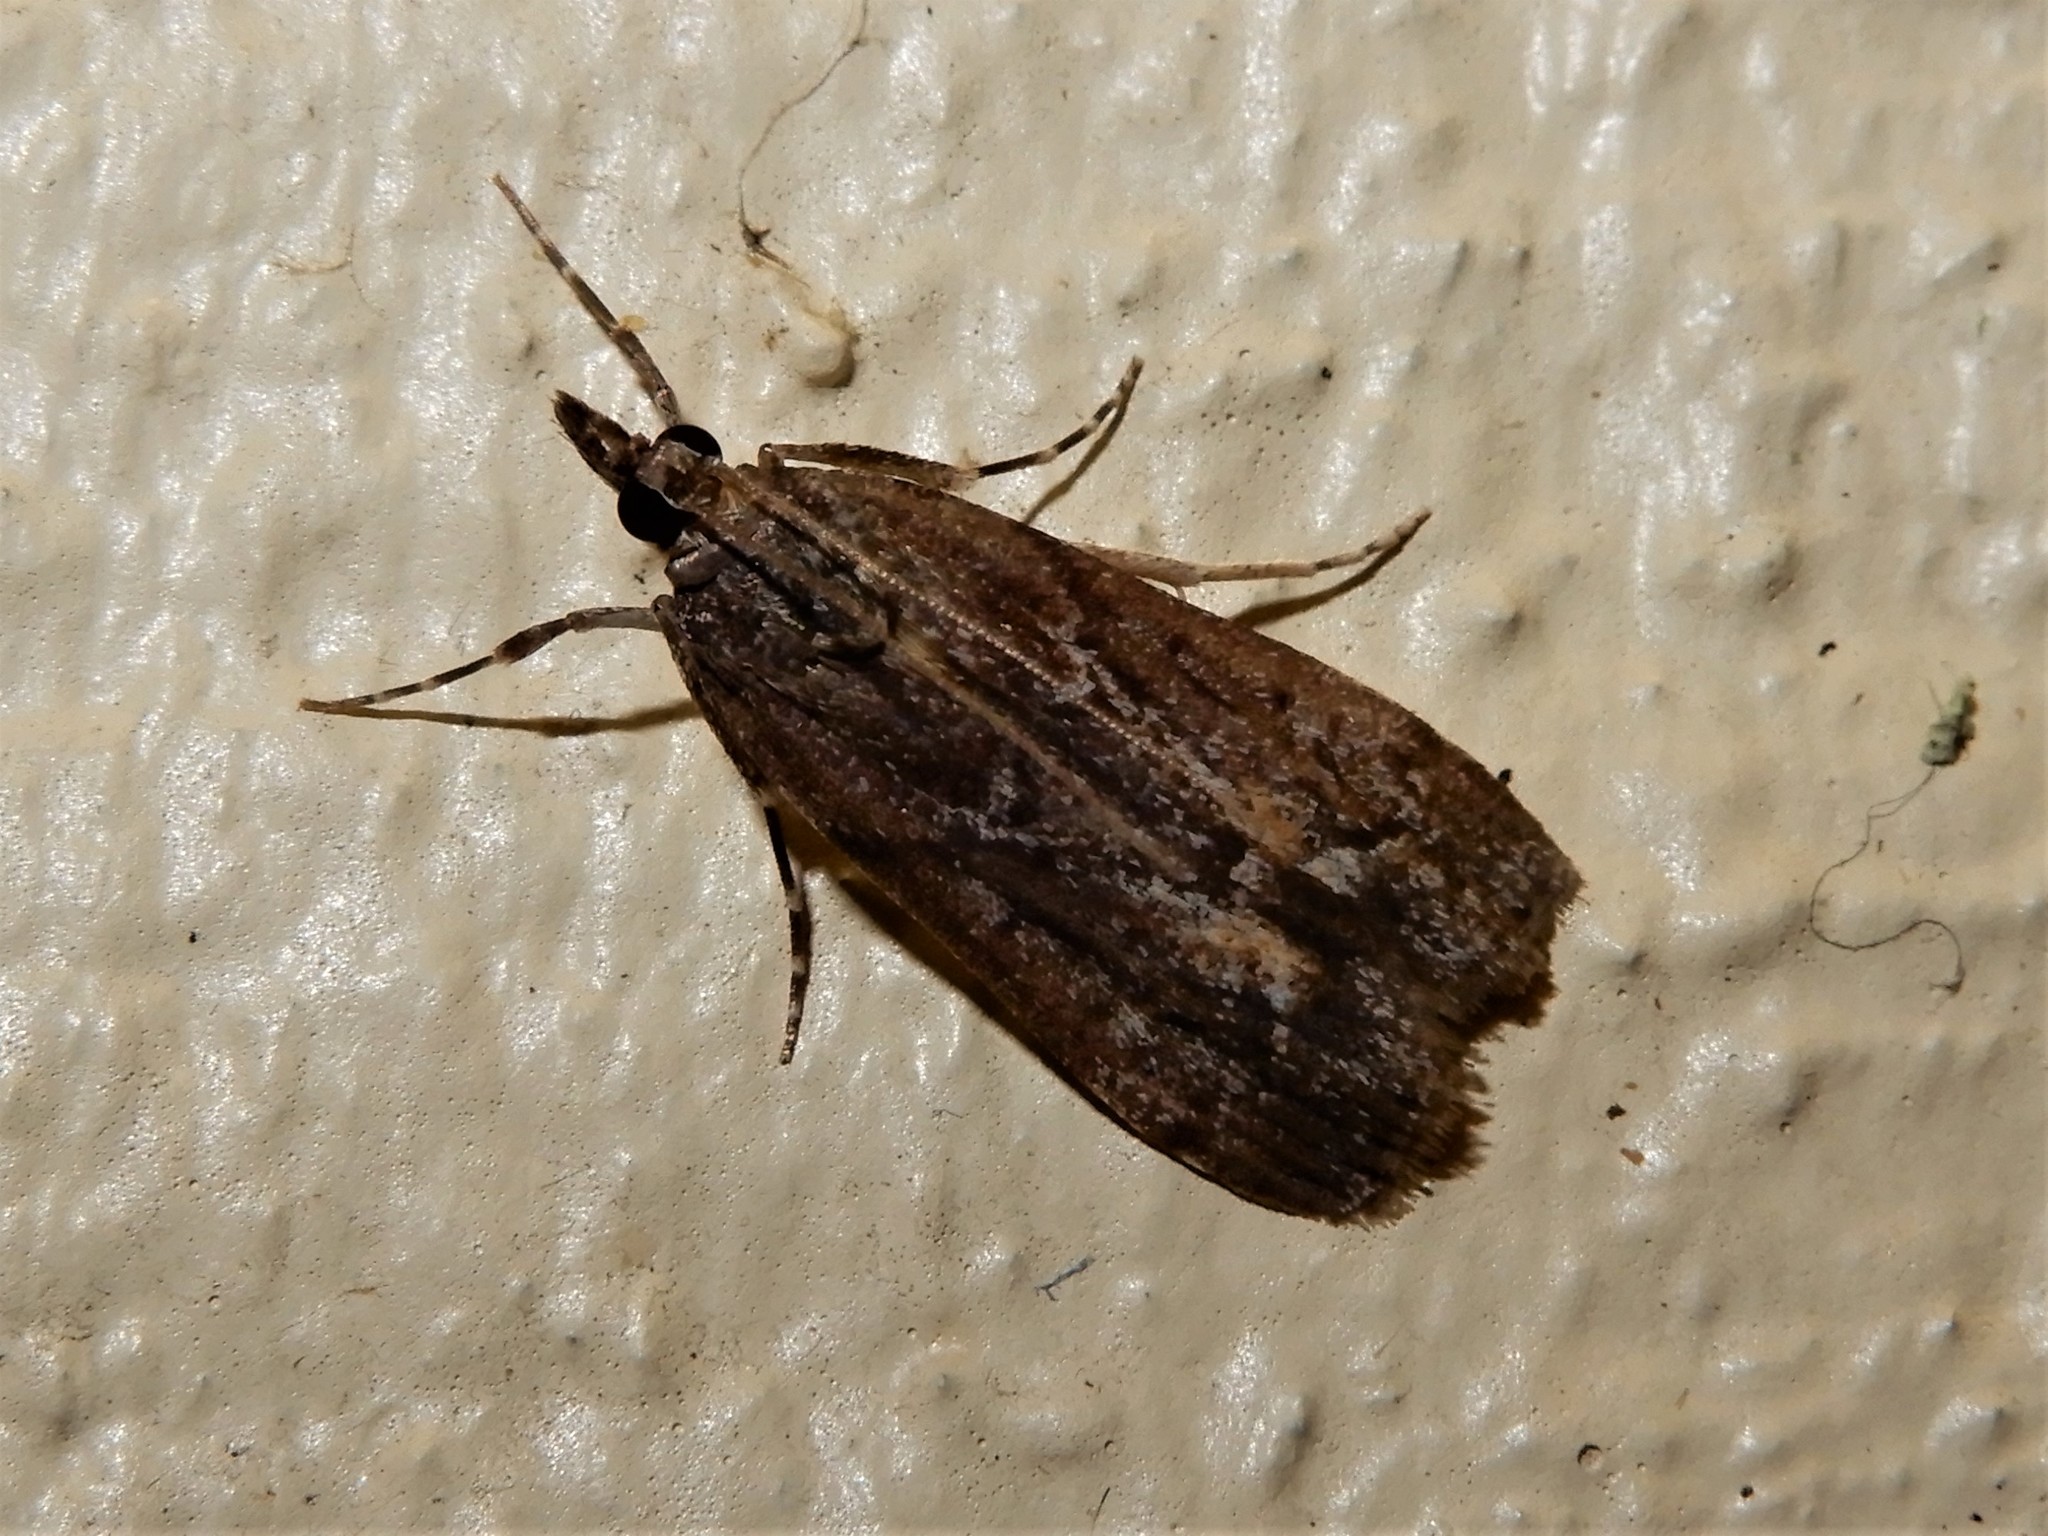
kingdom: Animalia
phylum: Arthropoda
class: Insecta
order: Lepidoptera
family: Crambidae
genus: Eudonia
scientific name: Eudonia submarginalis
